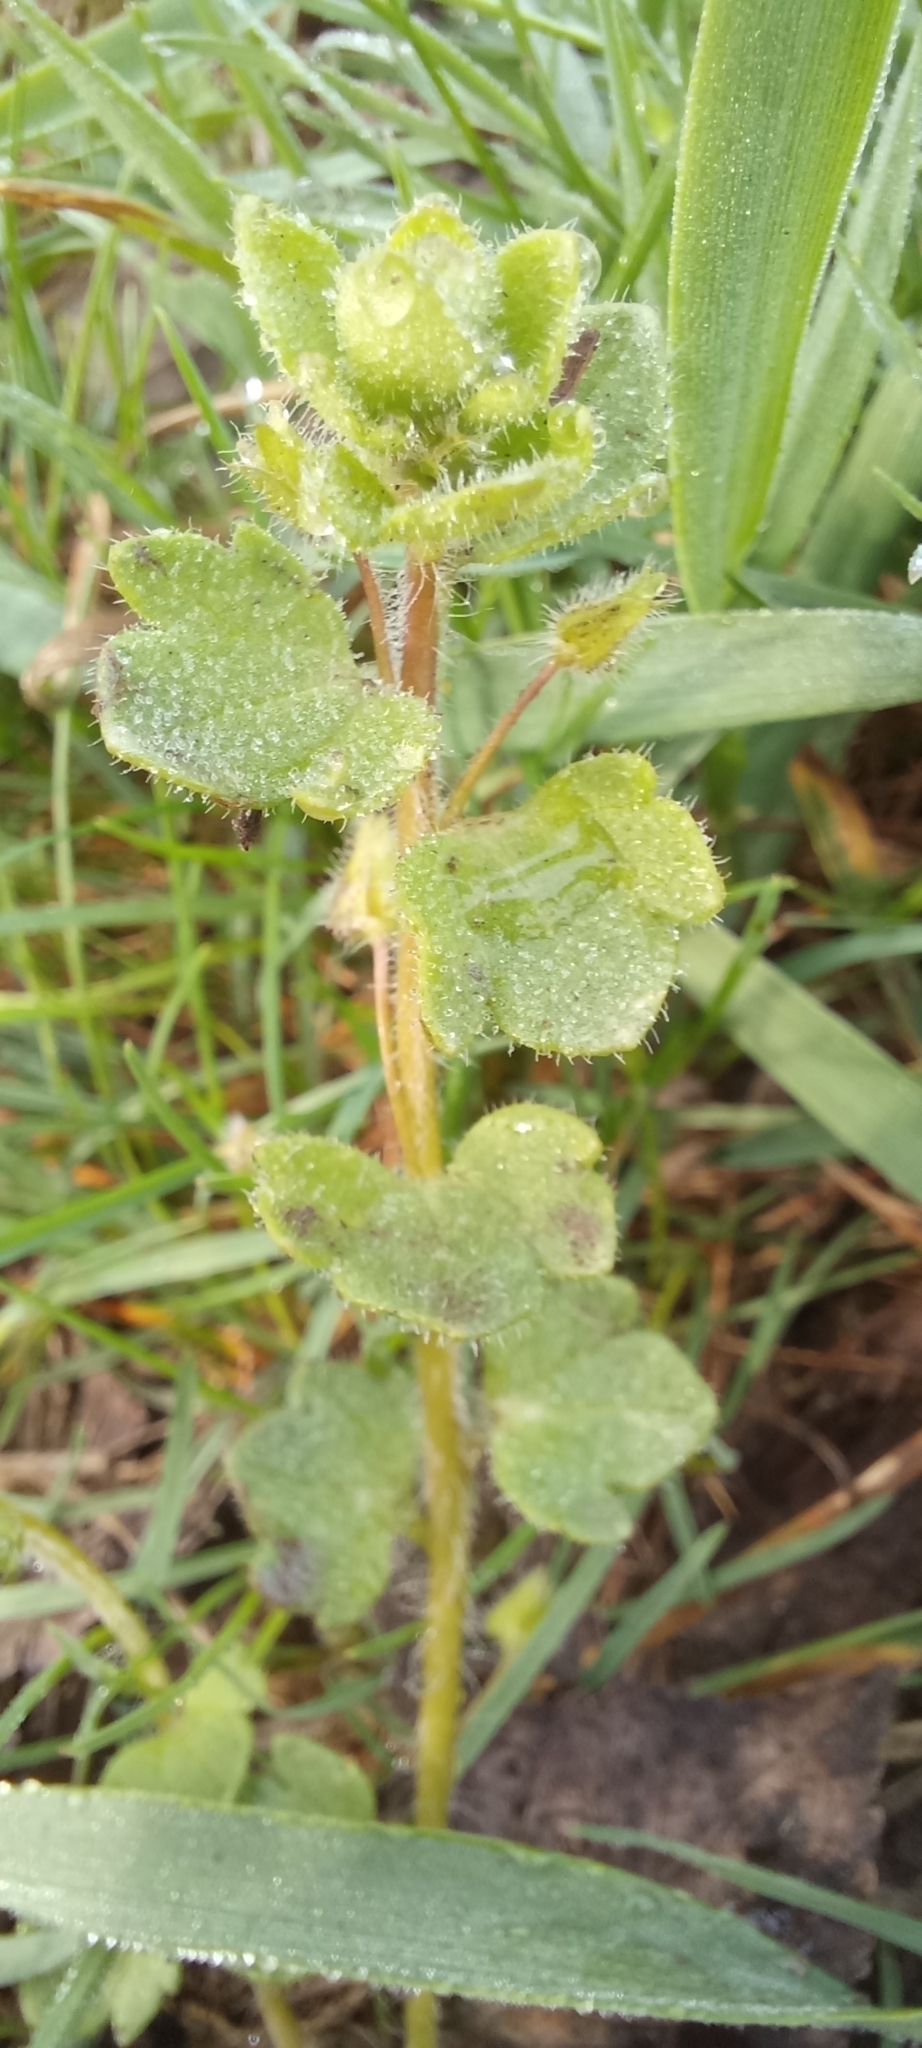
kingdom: Plantae
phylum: Tracheophyta
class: Magnoliopsida
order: Lamiales
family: Plantaginaceae
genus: Veronica
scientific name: Veronica hederifolia
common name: Ivy-leaved speedwell
